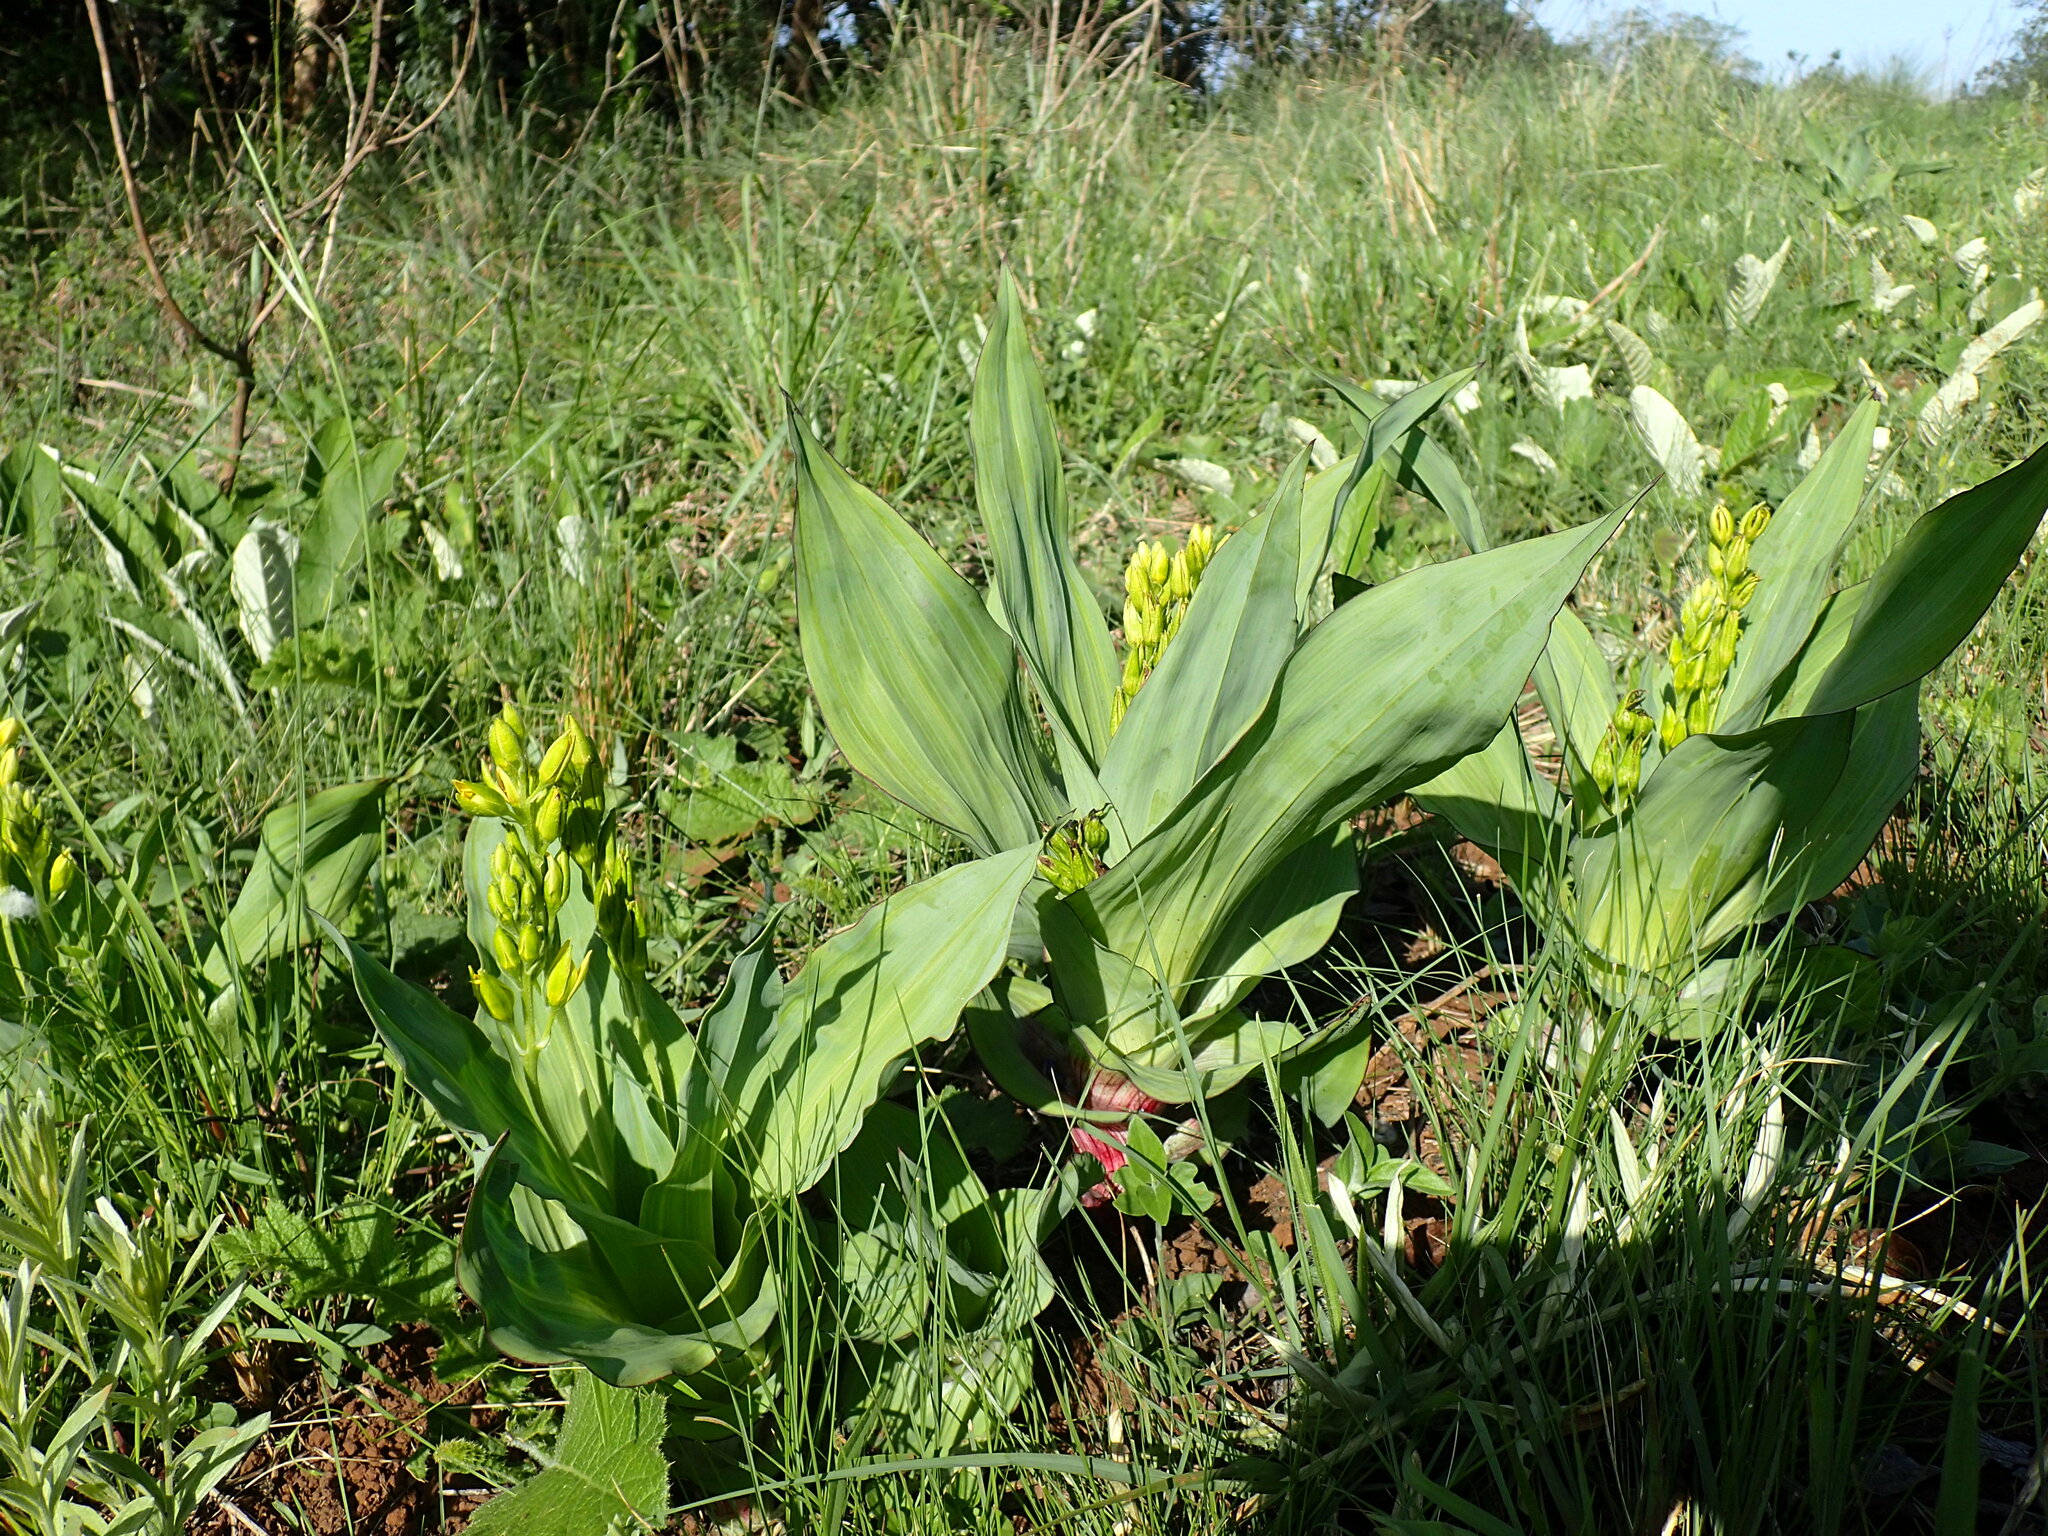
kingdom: Plantae
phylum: Tracheophyta
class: Liliopsida
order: Asparagales
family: Hypoxidaceae
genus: Hypoxis
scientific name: Hypoxis colchicifolia
